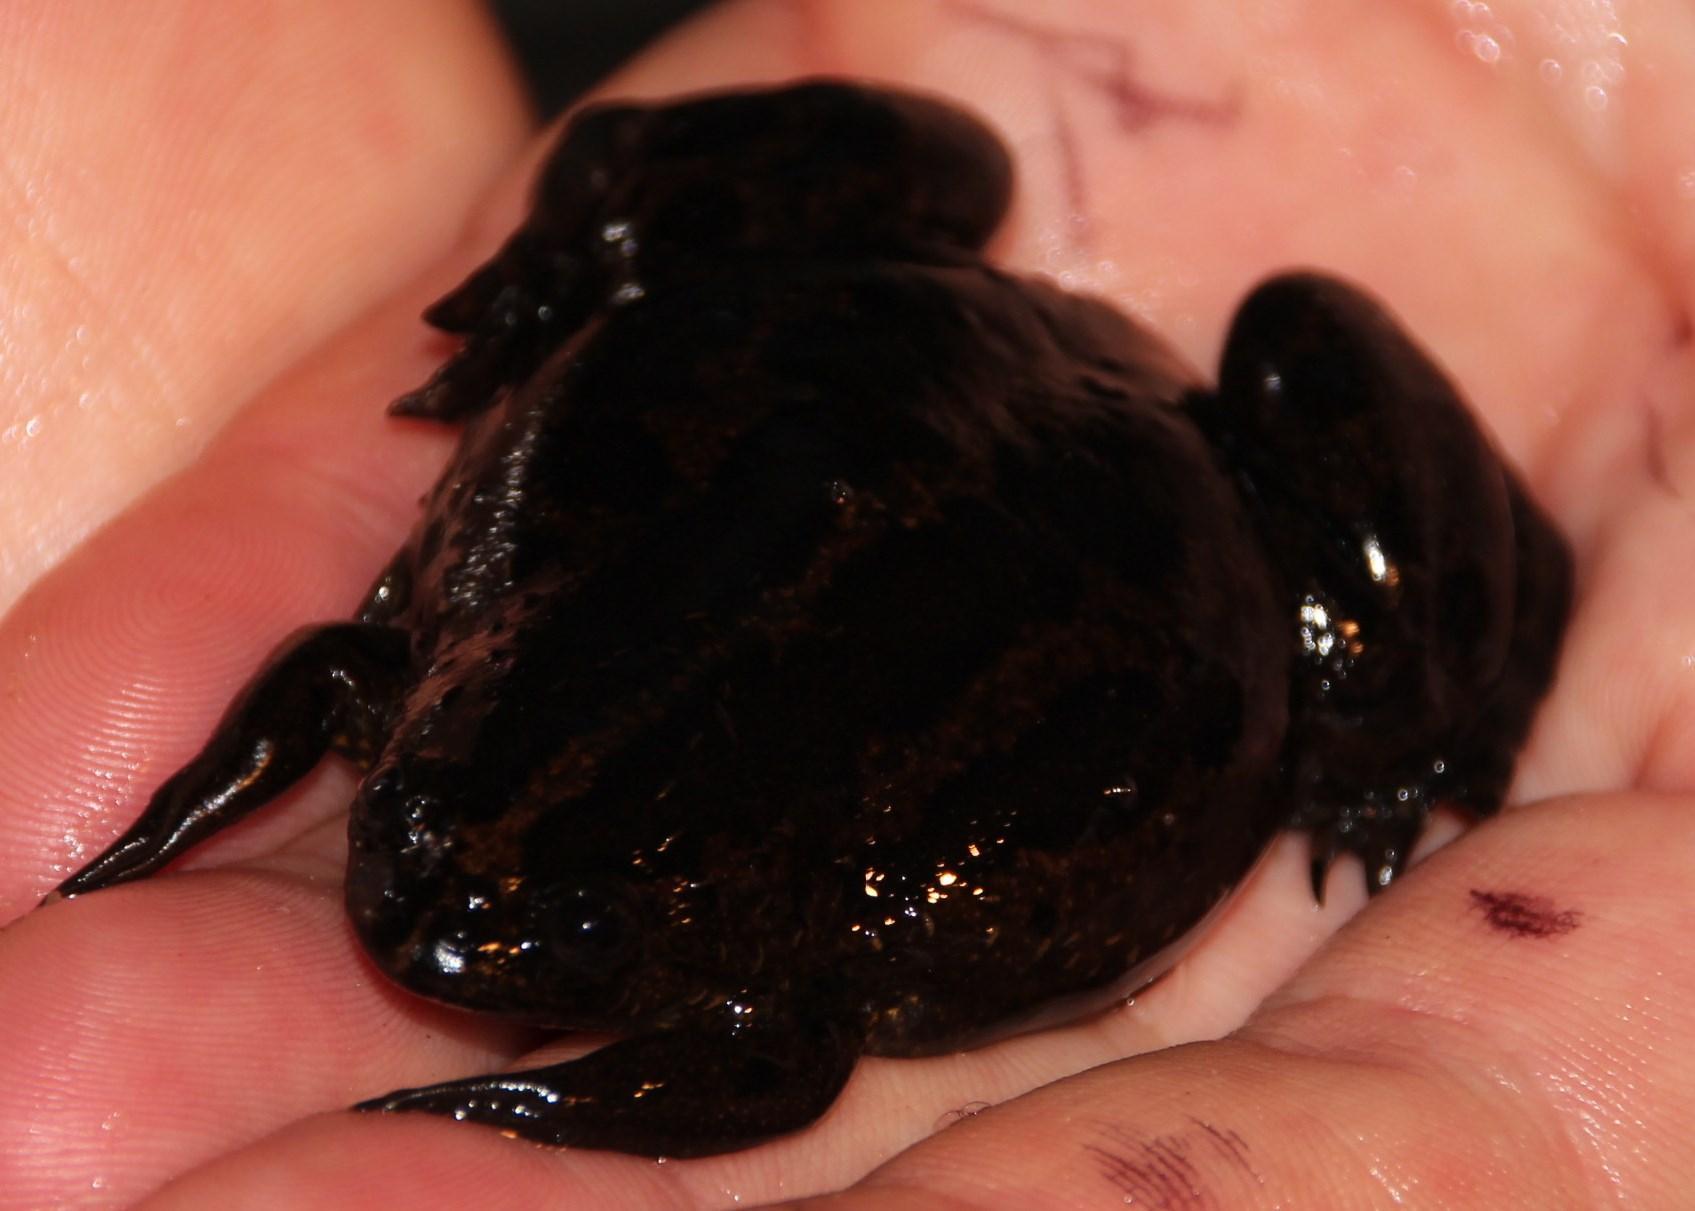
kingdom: Animalia
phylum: Chordata
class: Amphibia
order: Anura
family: Pipidae
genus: Xenopus
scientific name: Xenopus gilli
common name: Gill's platanna
